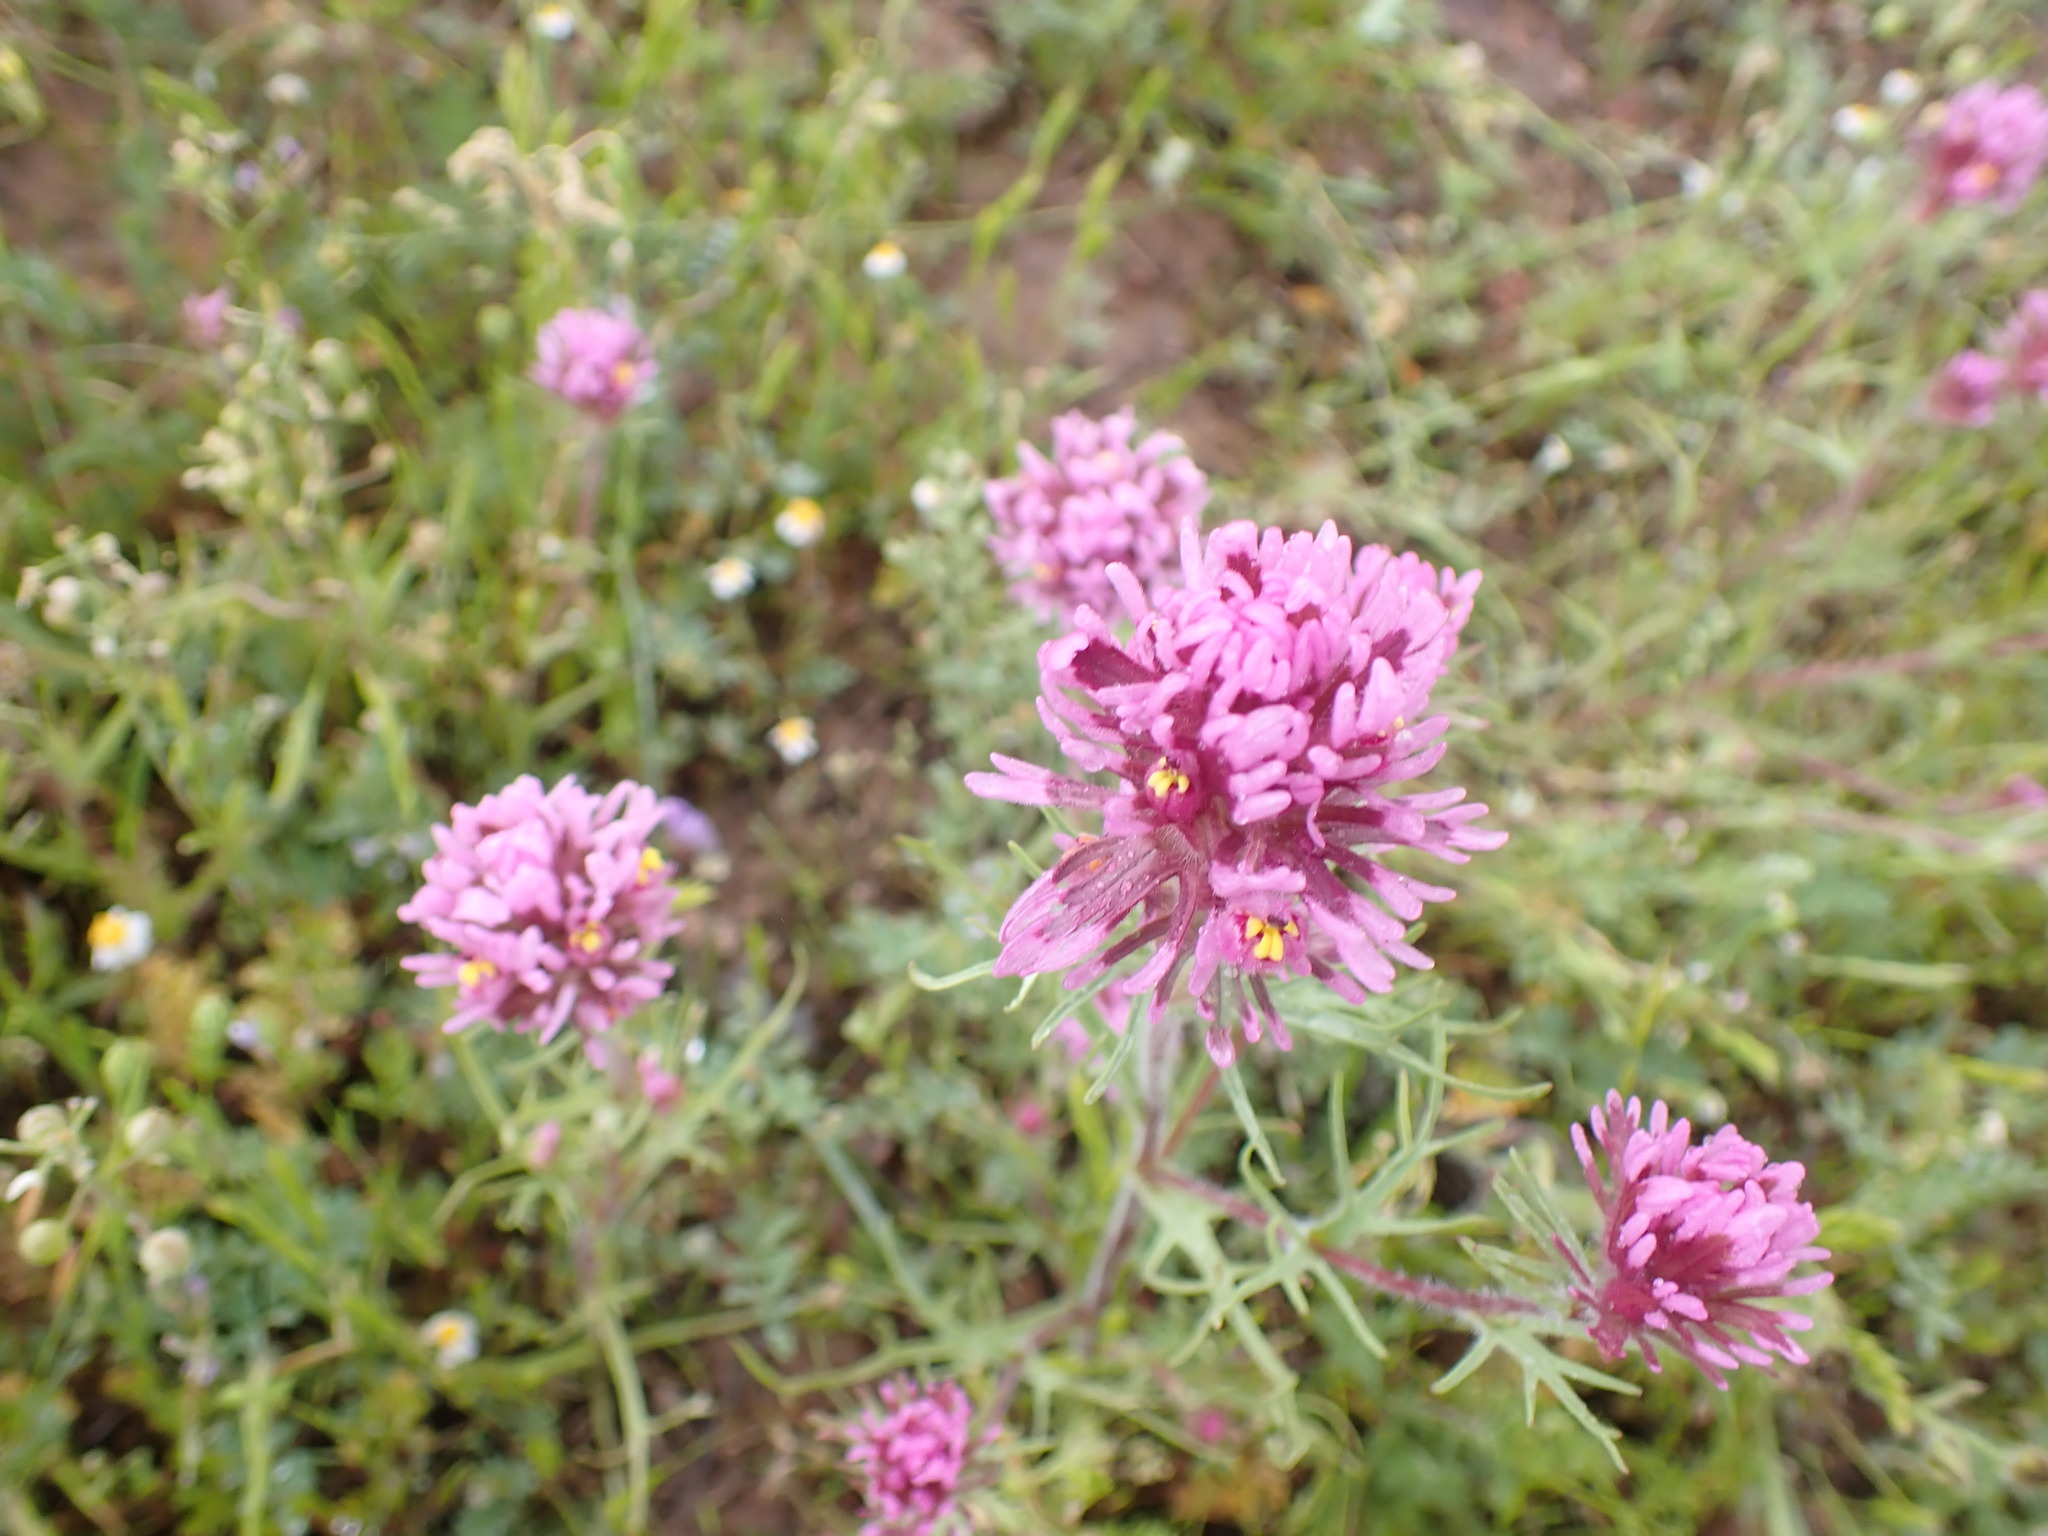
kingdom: Plantae
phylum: Tracheophyta
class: Magnoliopsida
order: Lamiales
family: Orobanchaceae
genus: Castilleja
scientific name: Castilleja exserta
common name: Purple owl-clover
